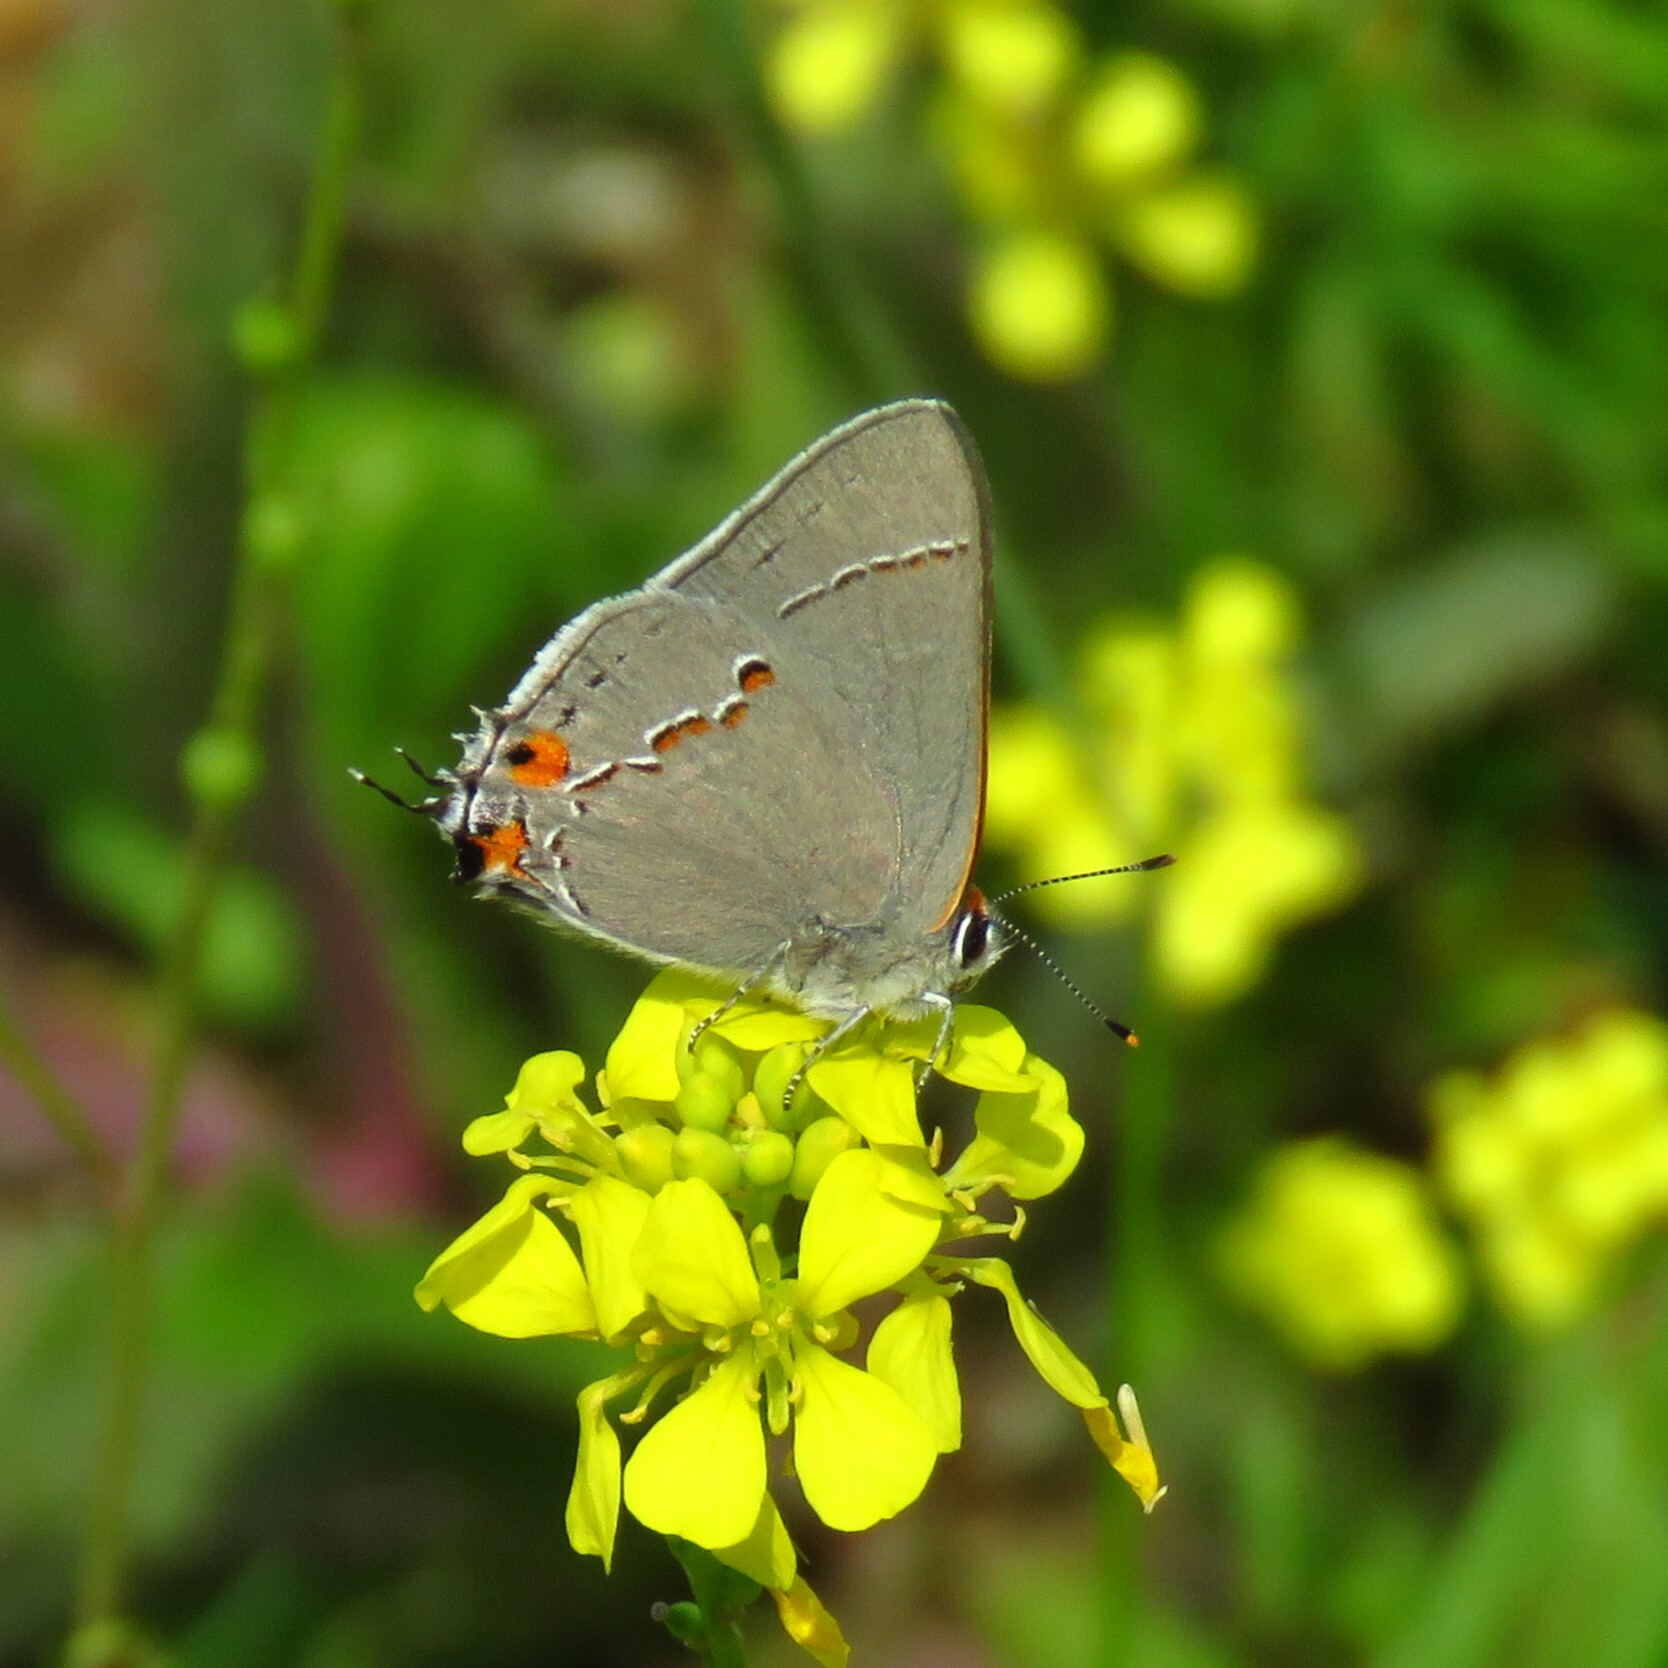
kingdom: Animalia
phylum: Arthropoda
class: Insecta
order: Lepidoptera
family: Lycaenidae
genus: Strymon
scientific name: Strymon melinus
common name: Gray hairstreak
